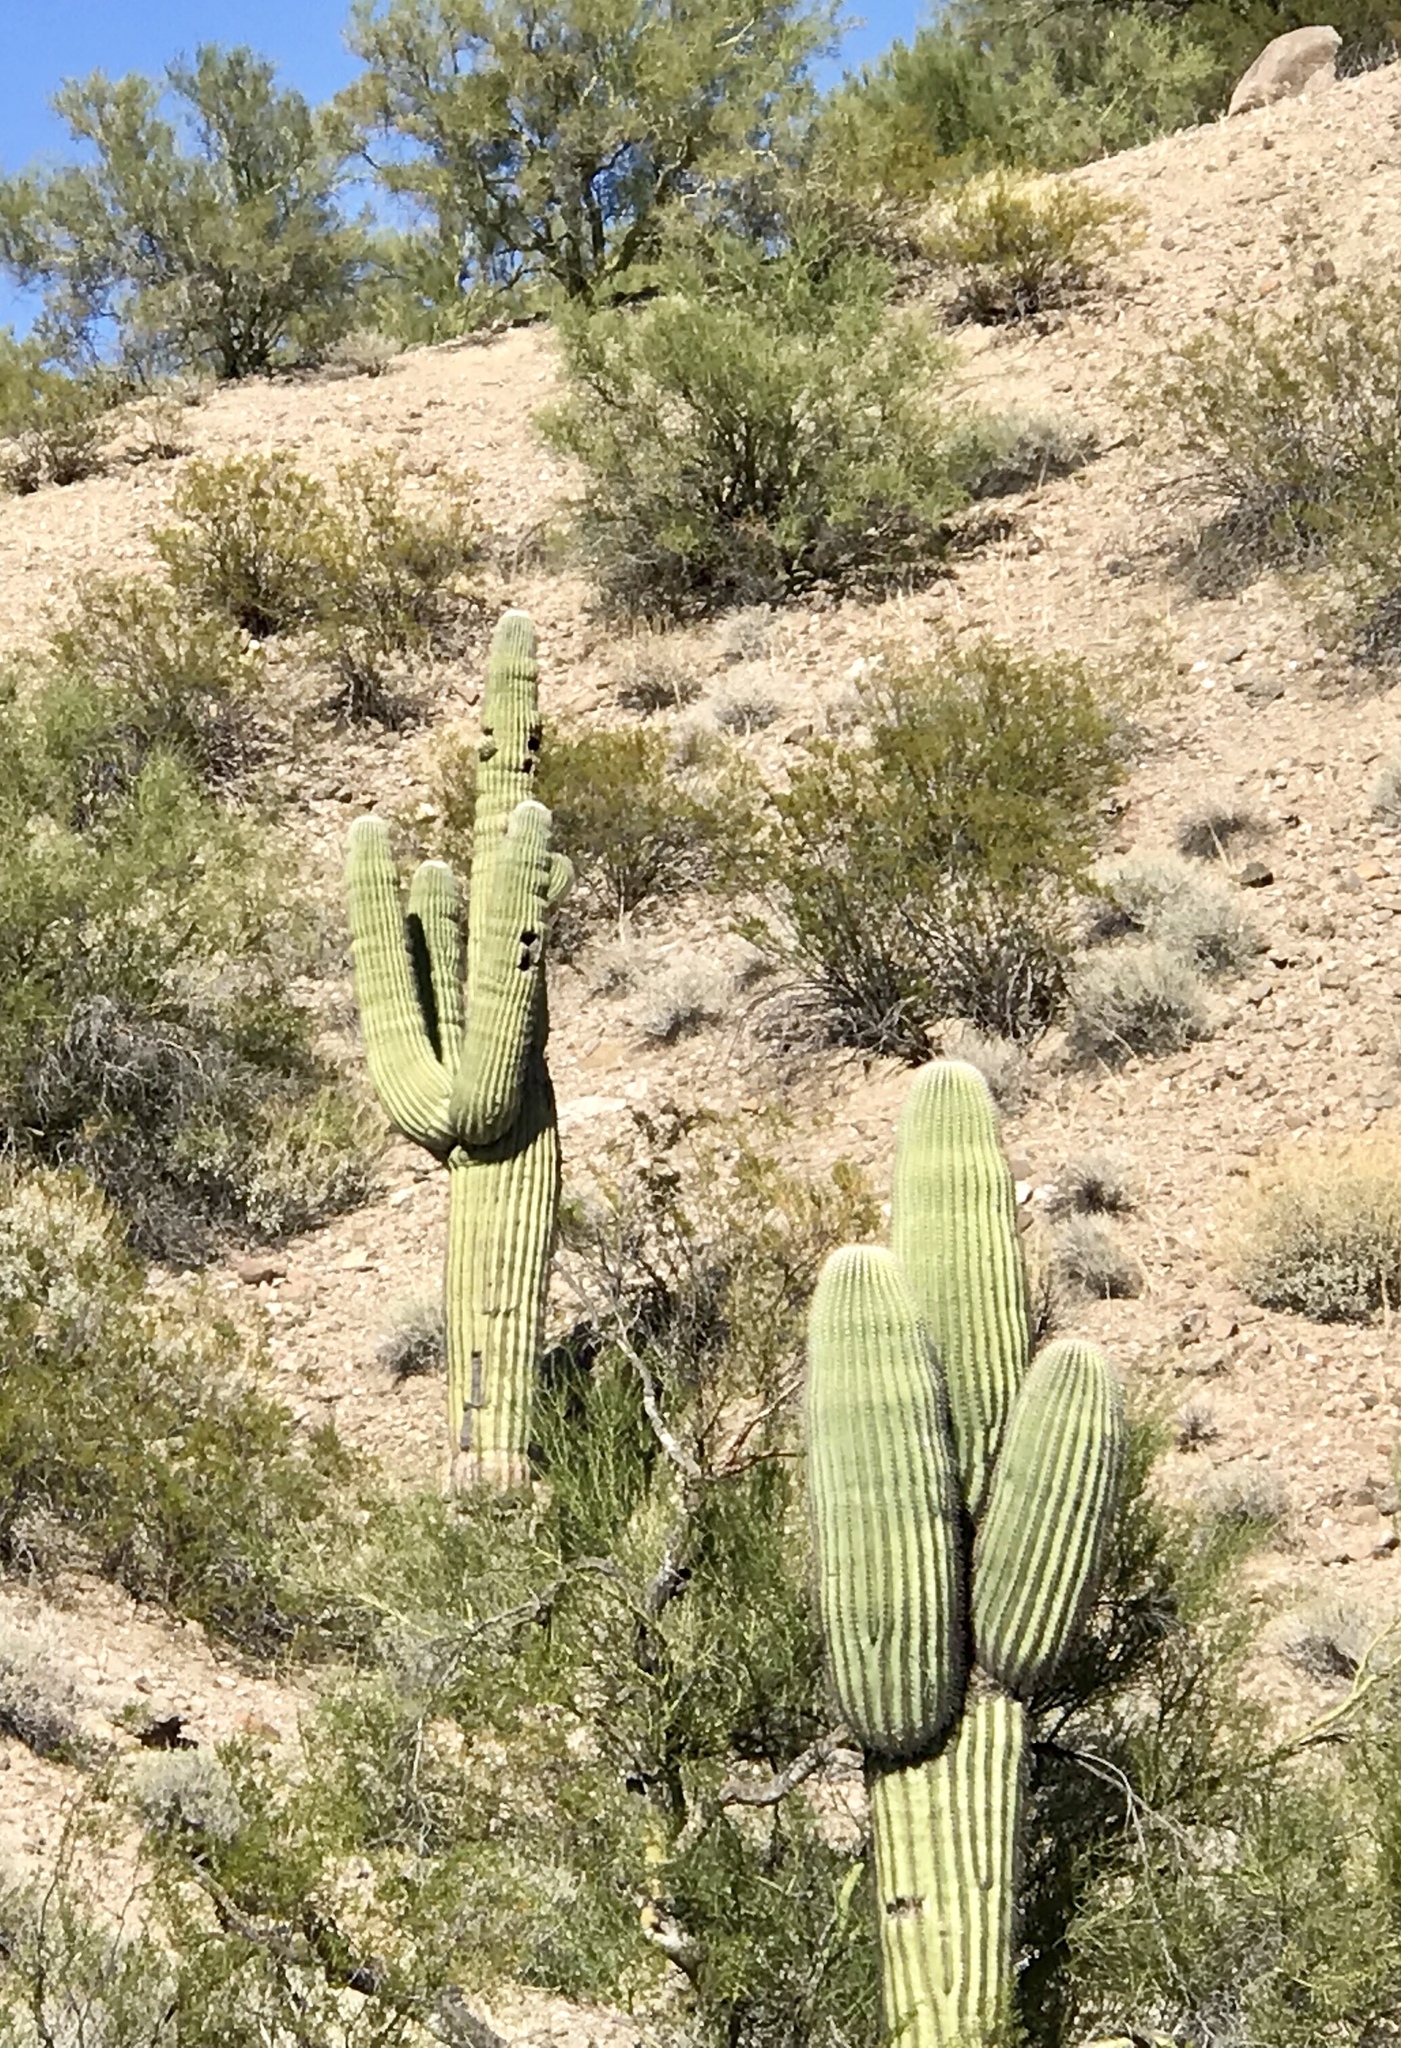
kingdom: Plantae
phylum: Tracheophyta
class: Magnoliopsida
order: Caryophyllales
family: Cactaceae
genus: Carnegiea
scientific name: Carnegiea gigantea
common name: Saguaro
